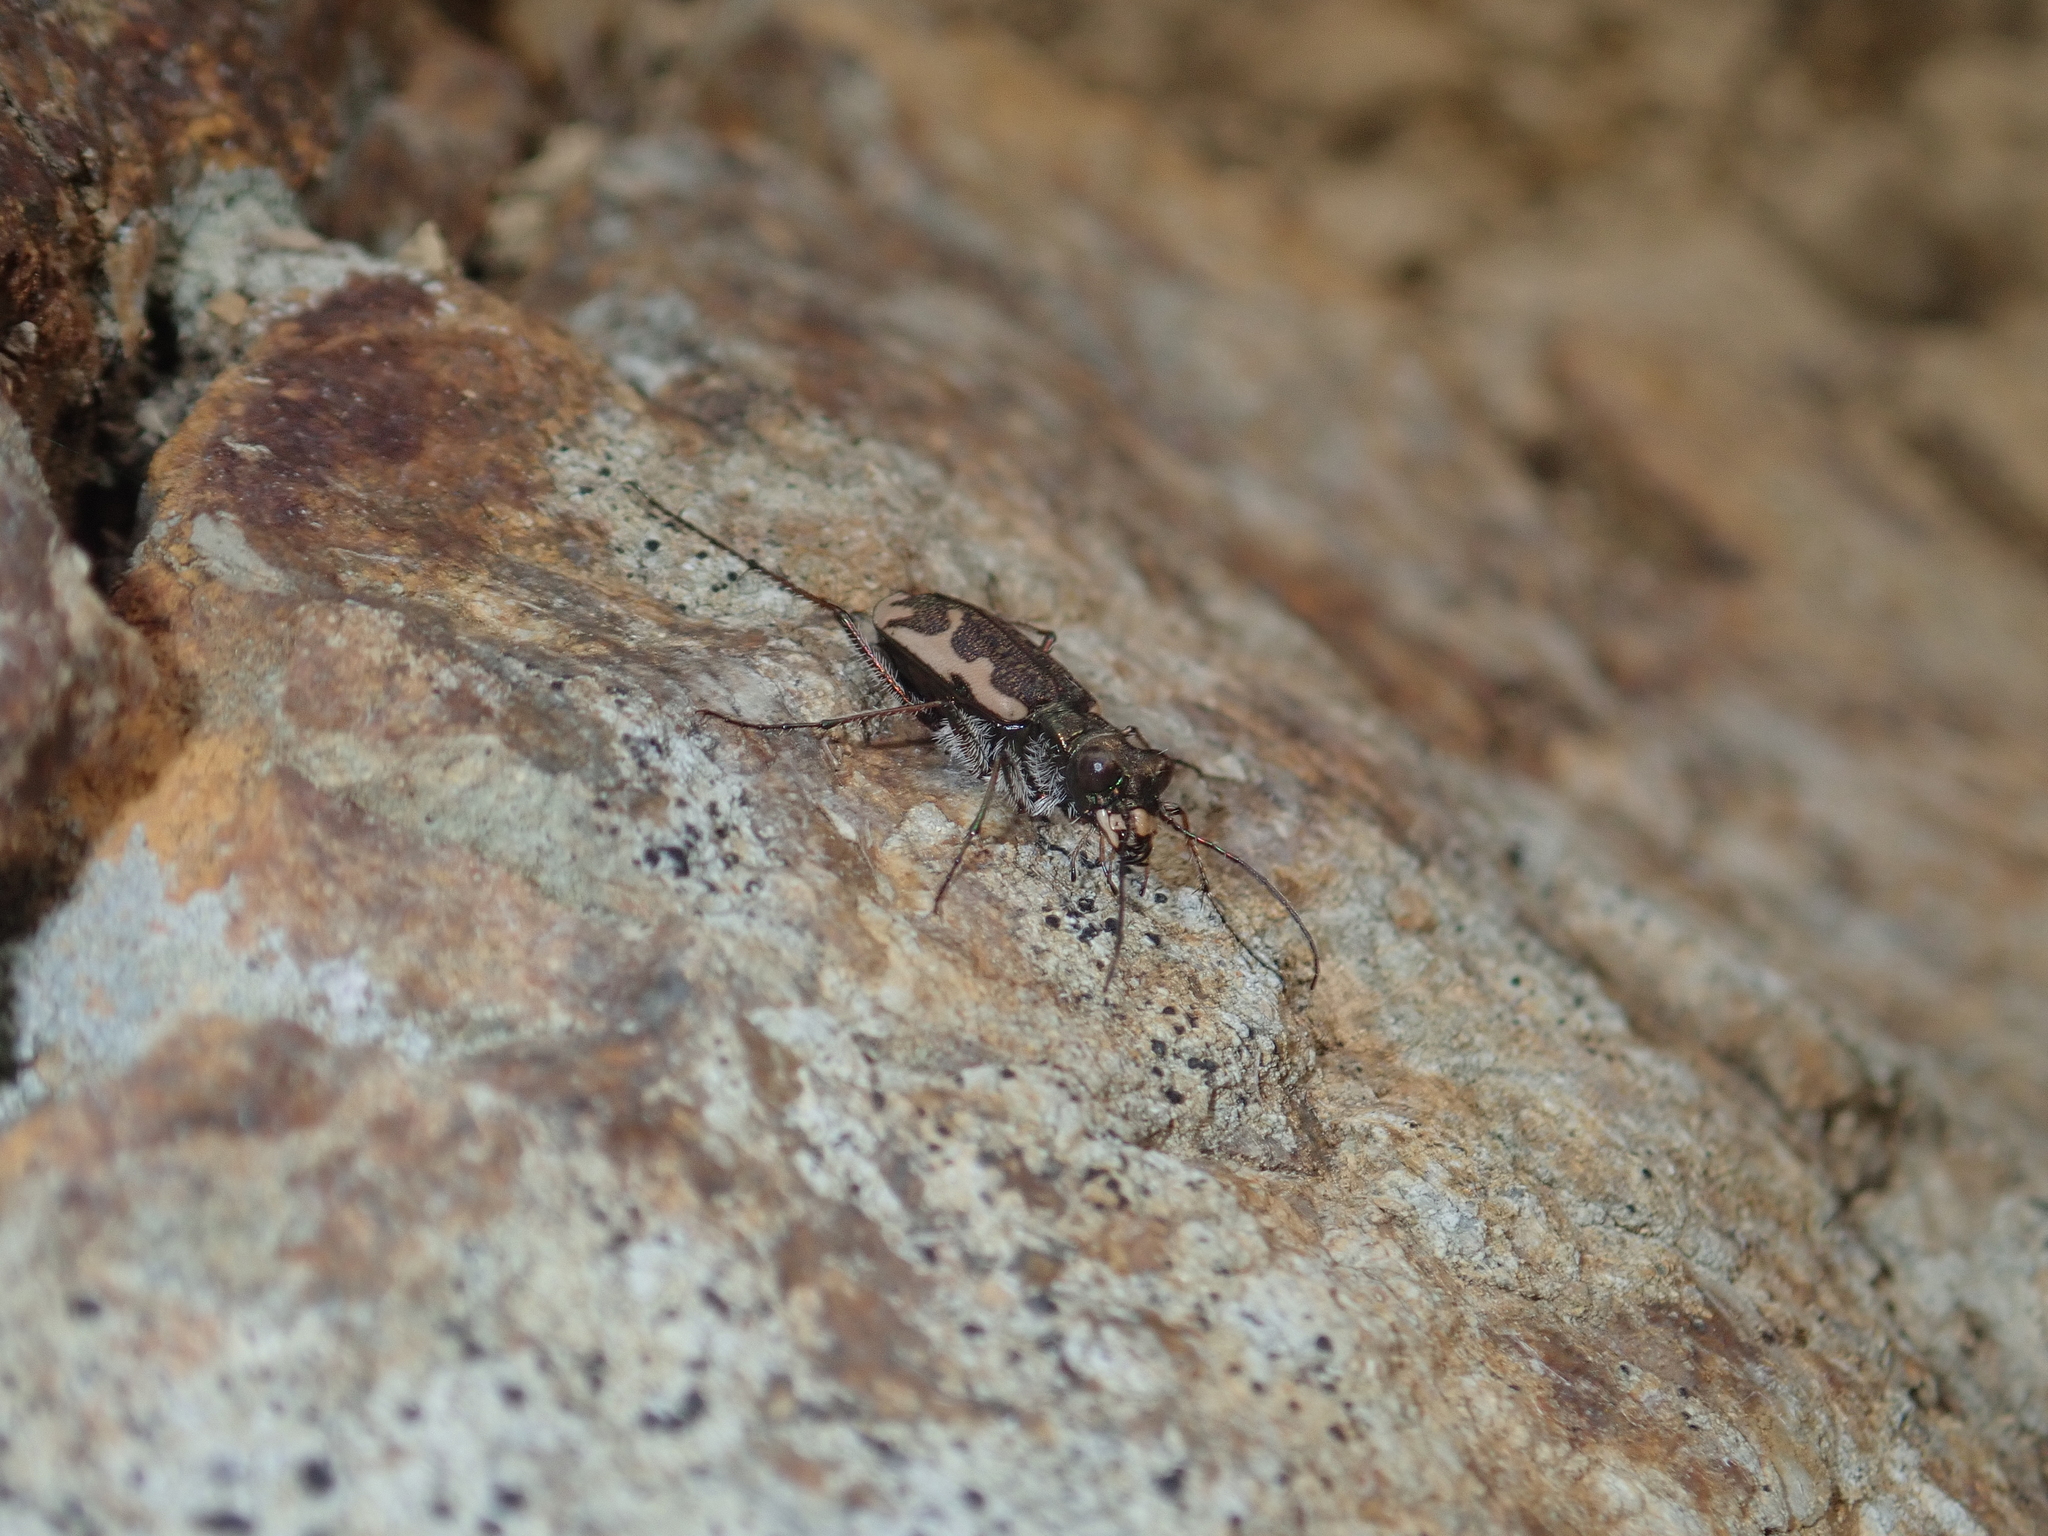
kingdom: Animalia
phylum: Arthropoda
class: Insecta
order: Coleoptera
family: Carabidae
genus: Neocicindela
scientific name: Neocicindela tuberculata
